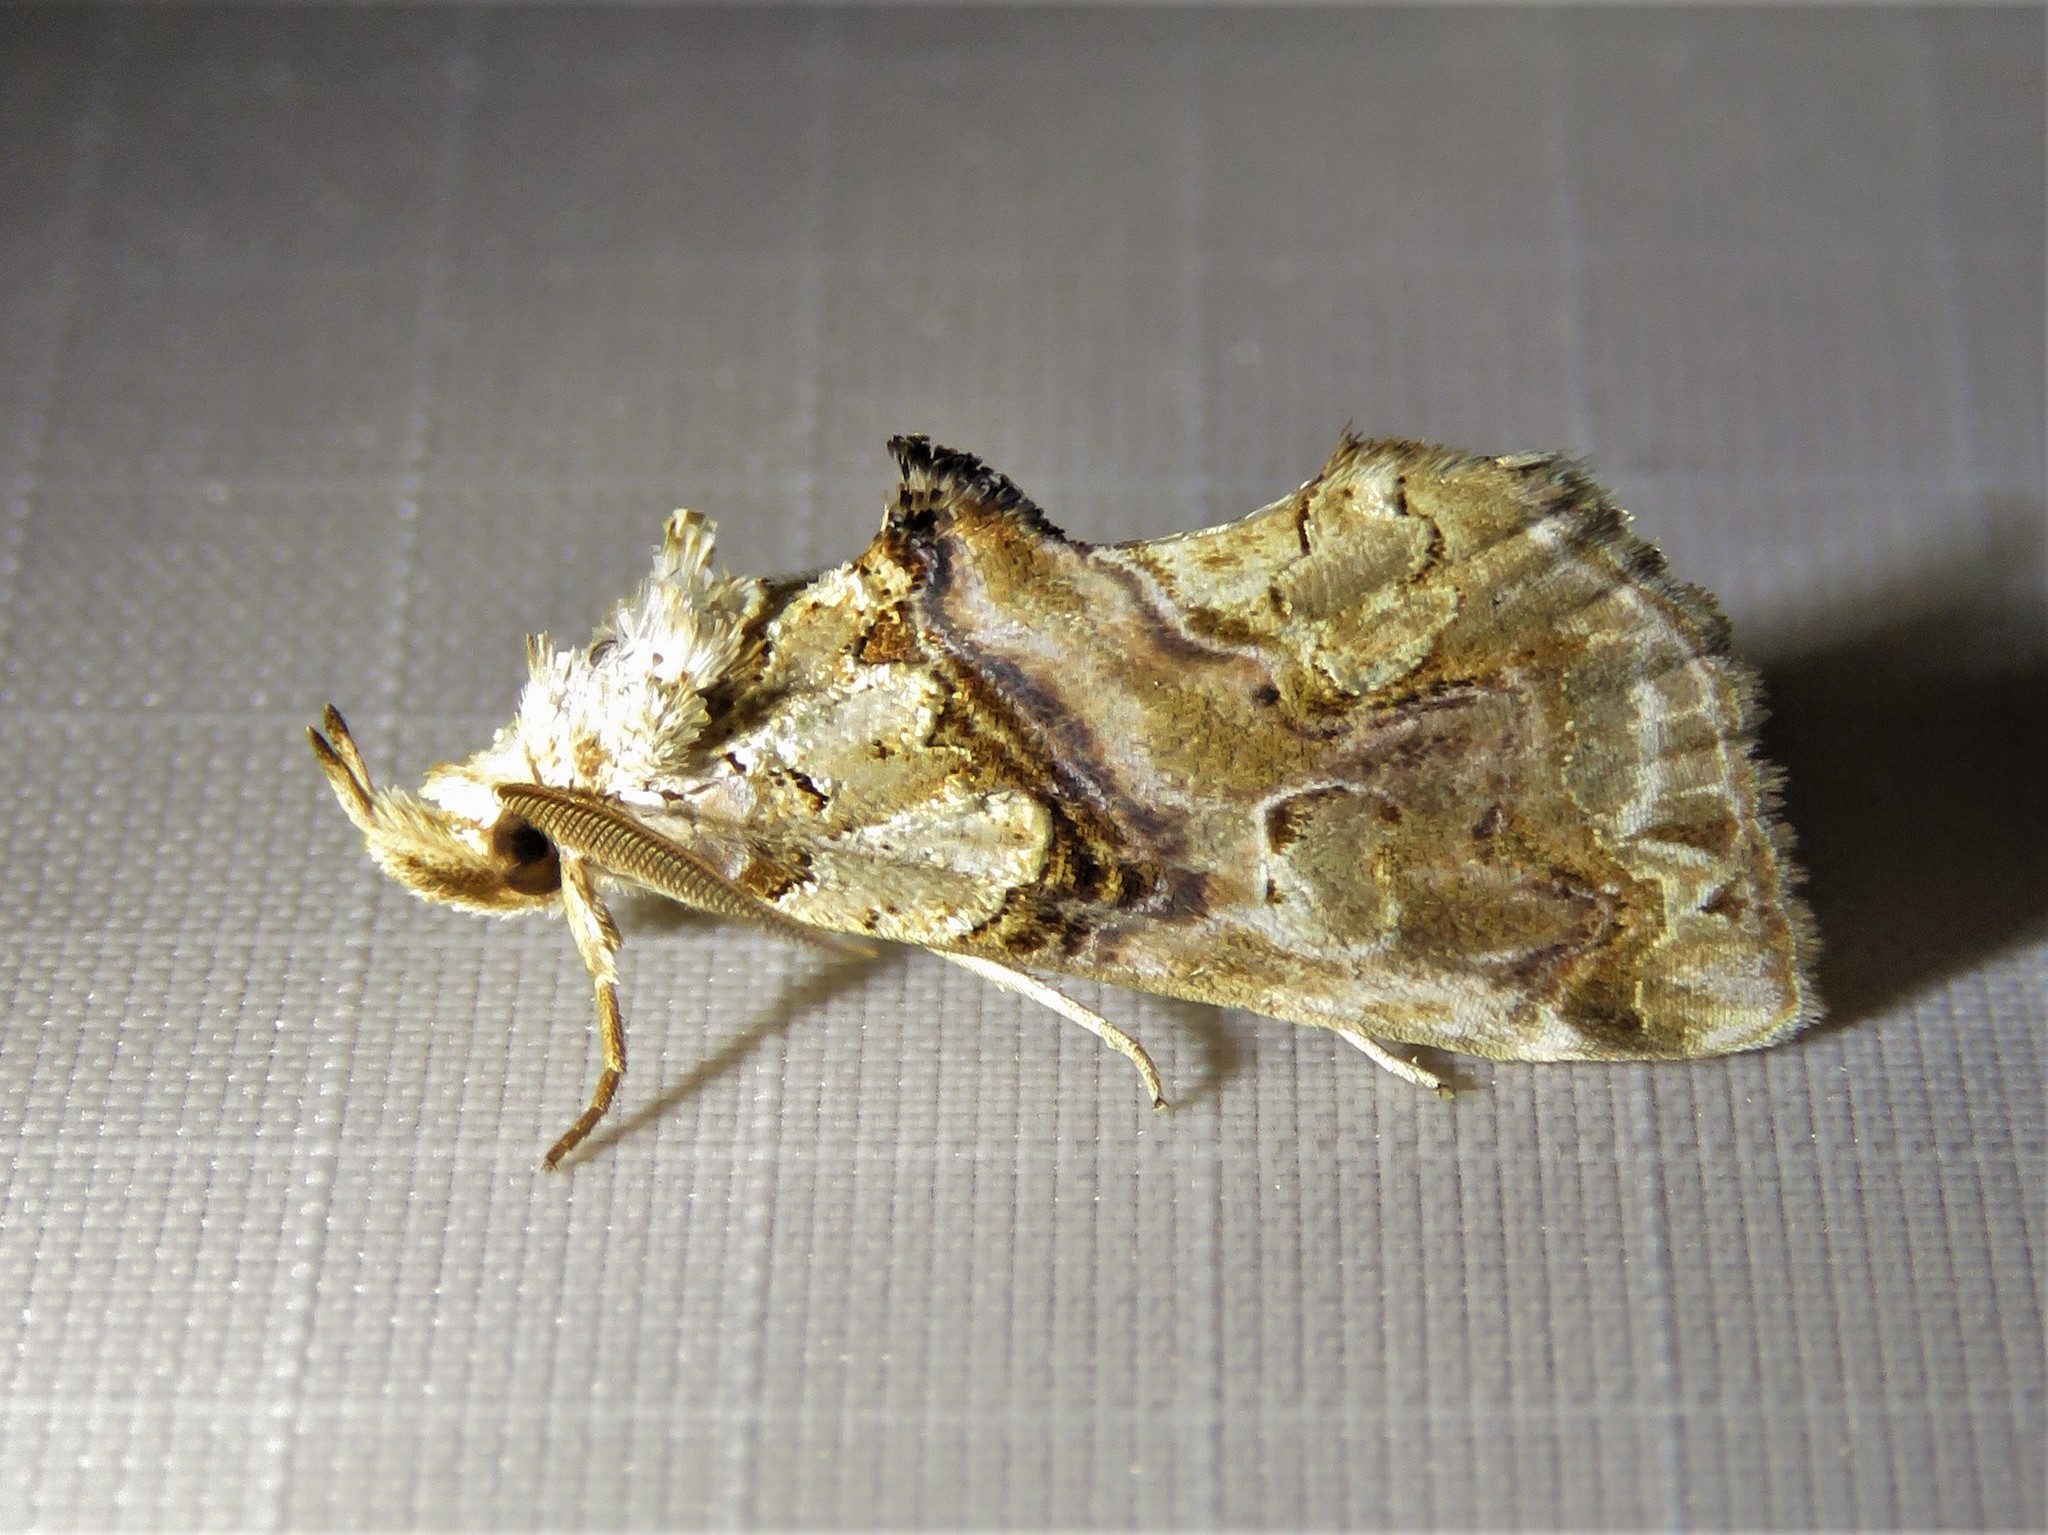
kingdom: Animalia
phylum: Arthropoda
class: Insecta
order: Lepidoptera
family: Erebidae
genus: Plusiodonta
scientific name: Plusiodonta compressipalpis
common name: Moonseed moth
